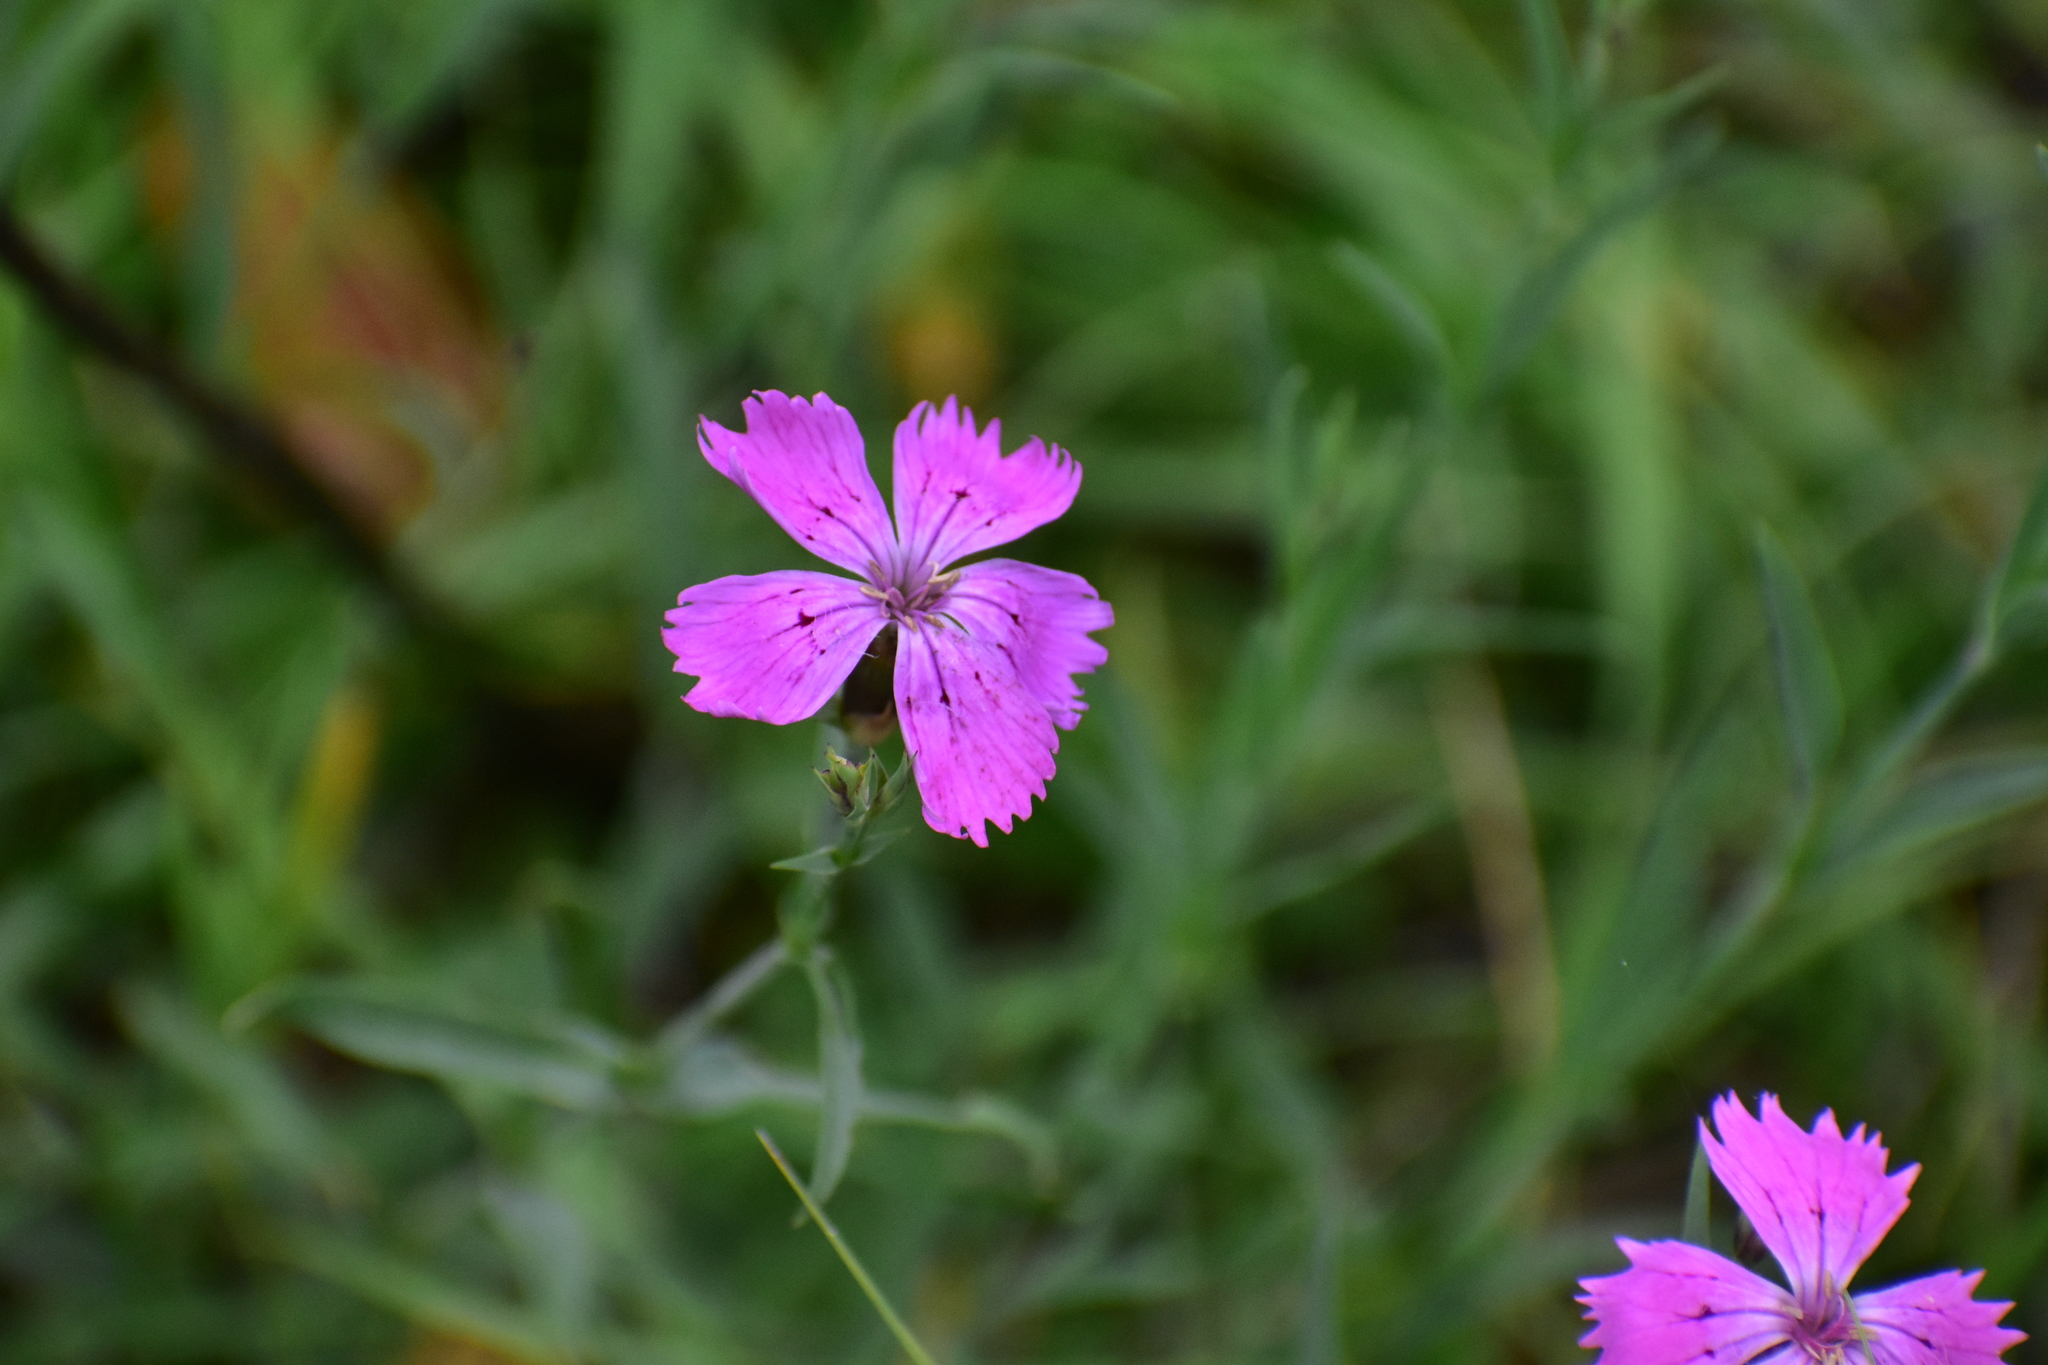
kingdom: Plantae
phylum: Tracheophyta
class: Magnoliopsida
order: Caryophyllales
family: Caryophyllaceae
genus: Dianthus
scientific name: Dianthus chinensis
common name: Rainbow pink
